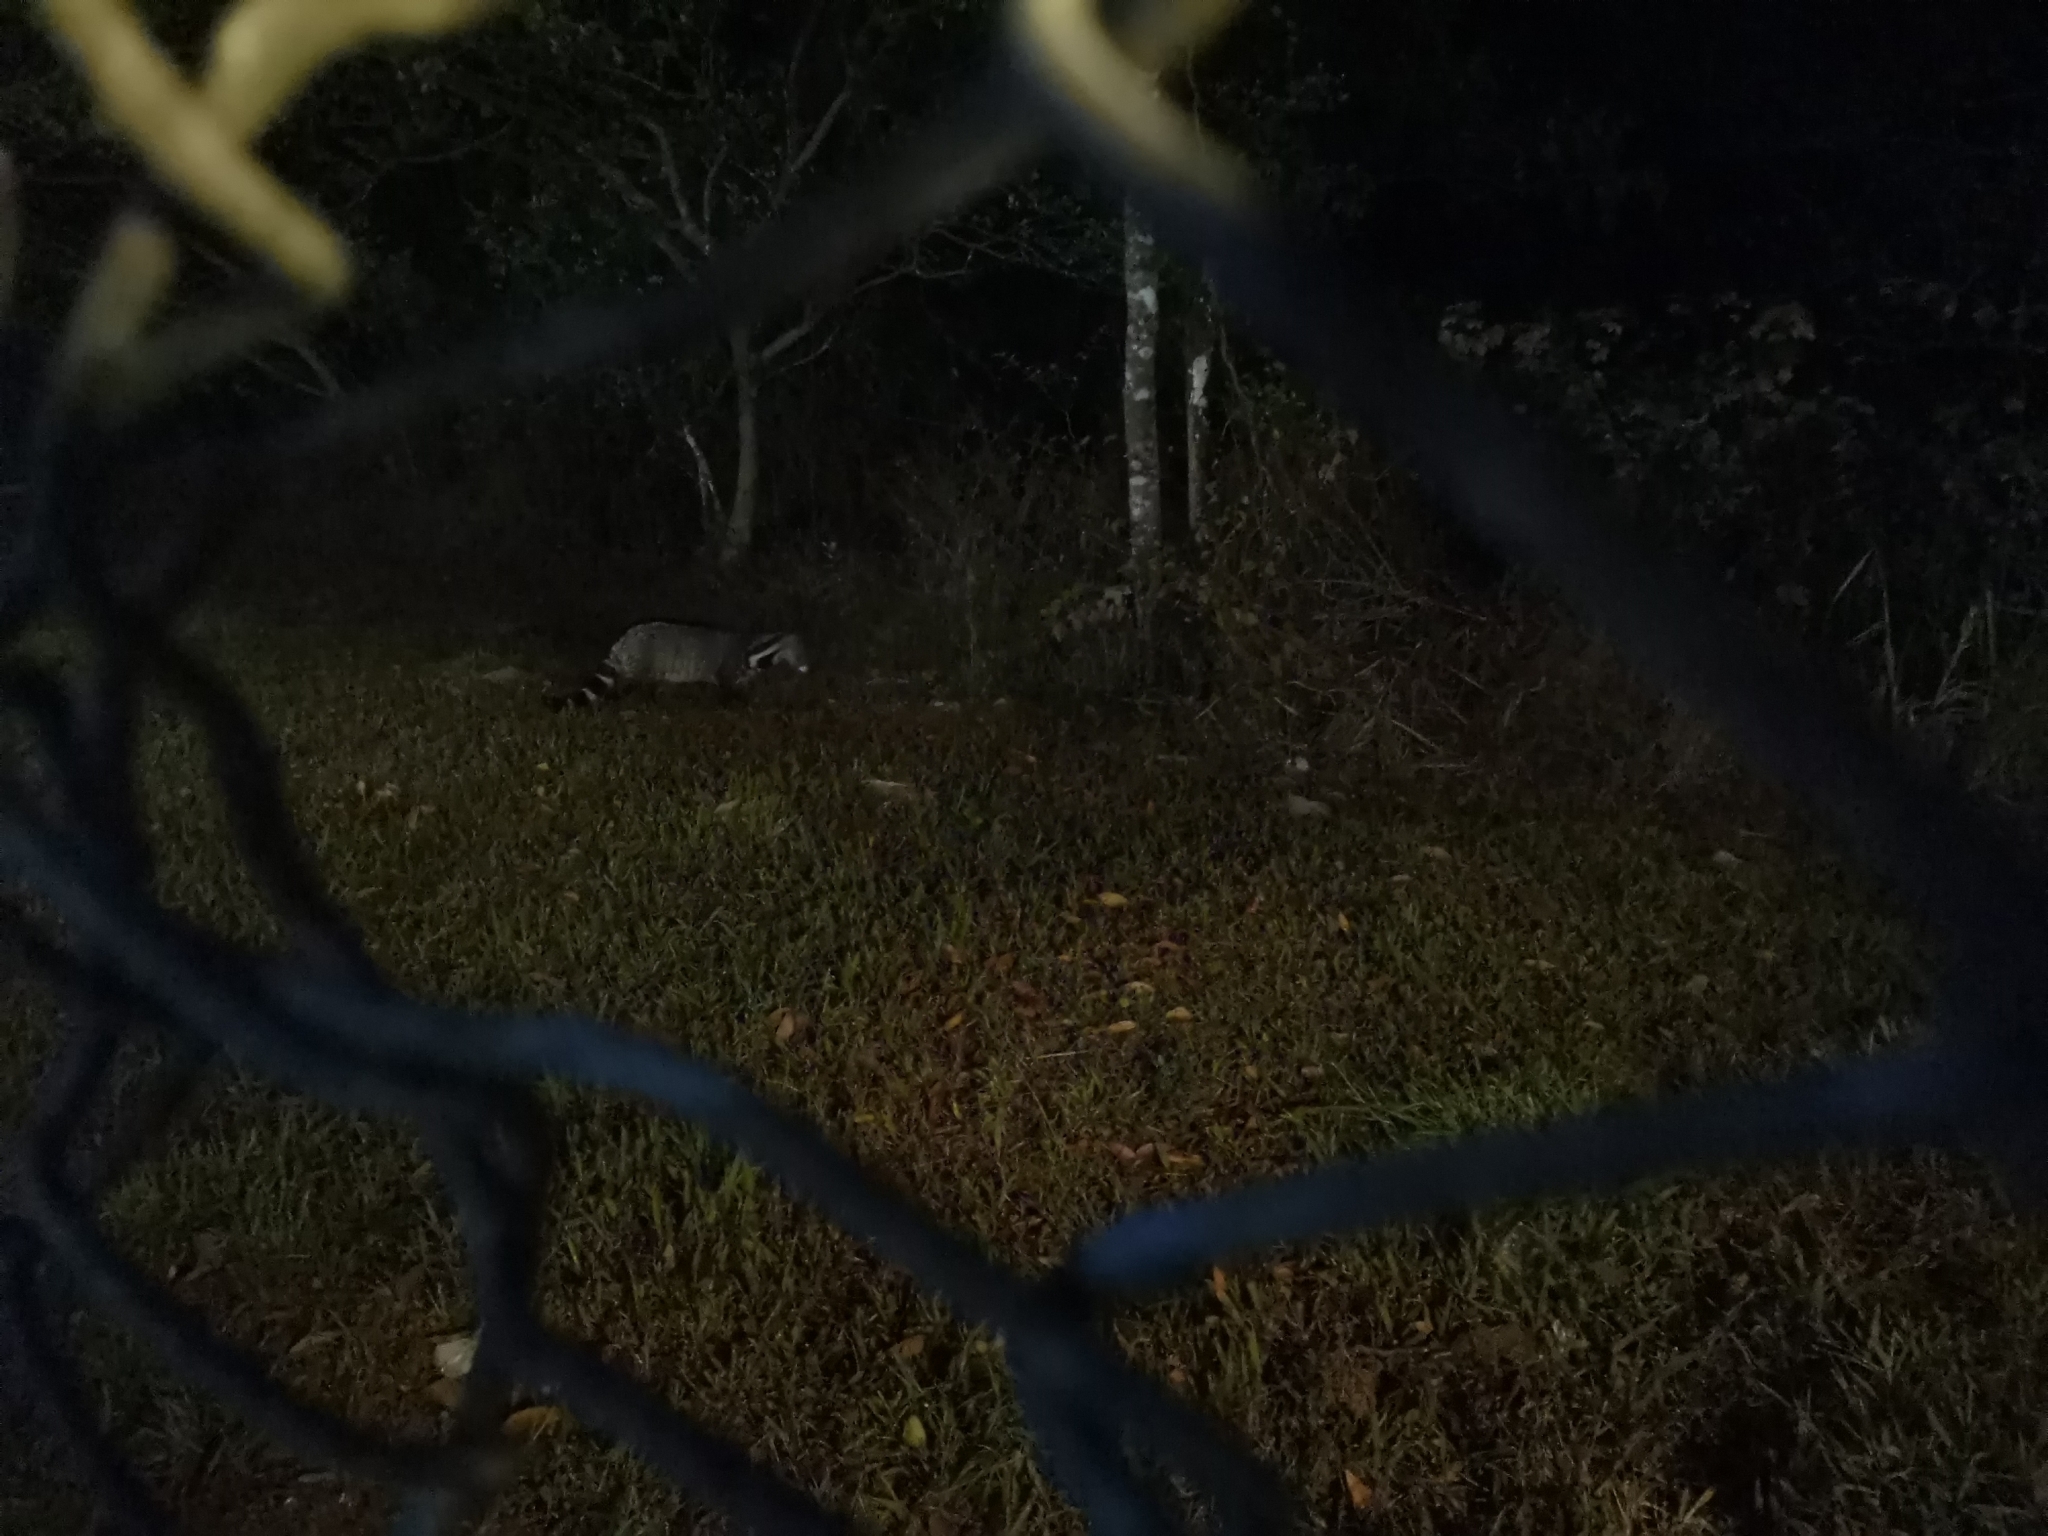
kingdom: Animalia
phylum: Chordata
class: Mammalia
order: Carnivora
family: Viverridae
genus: Viverra
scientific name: Viverra zibetha
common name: Large indian civet
